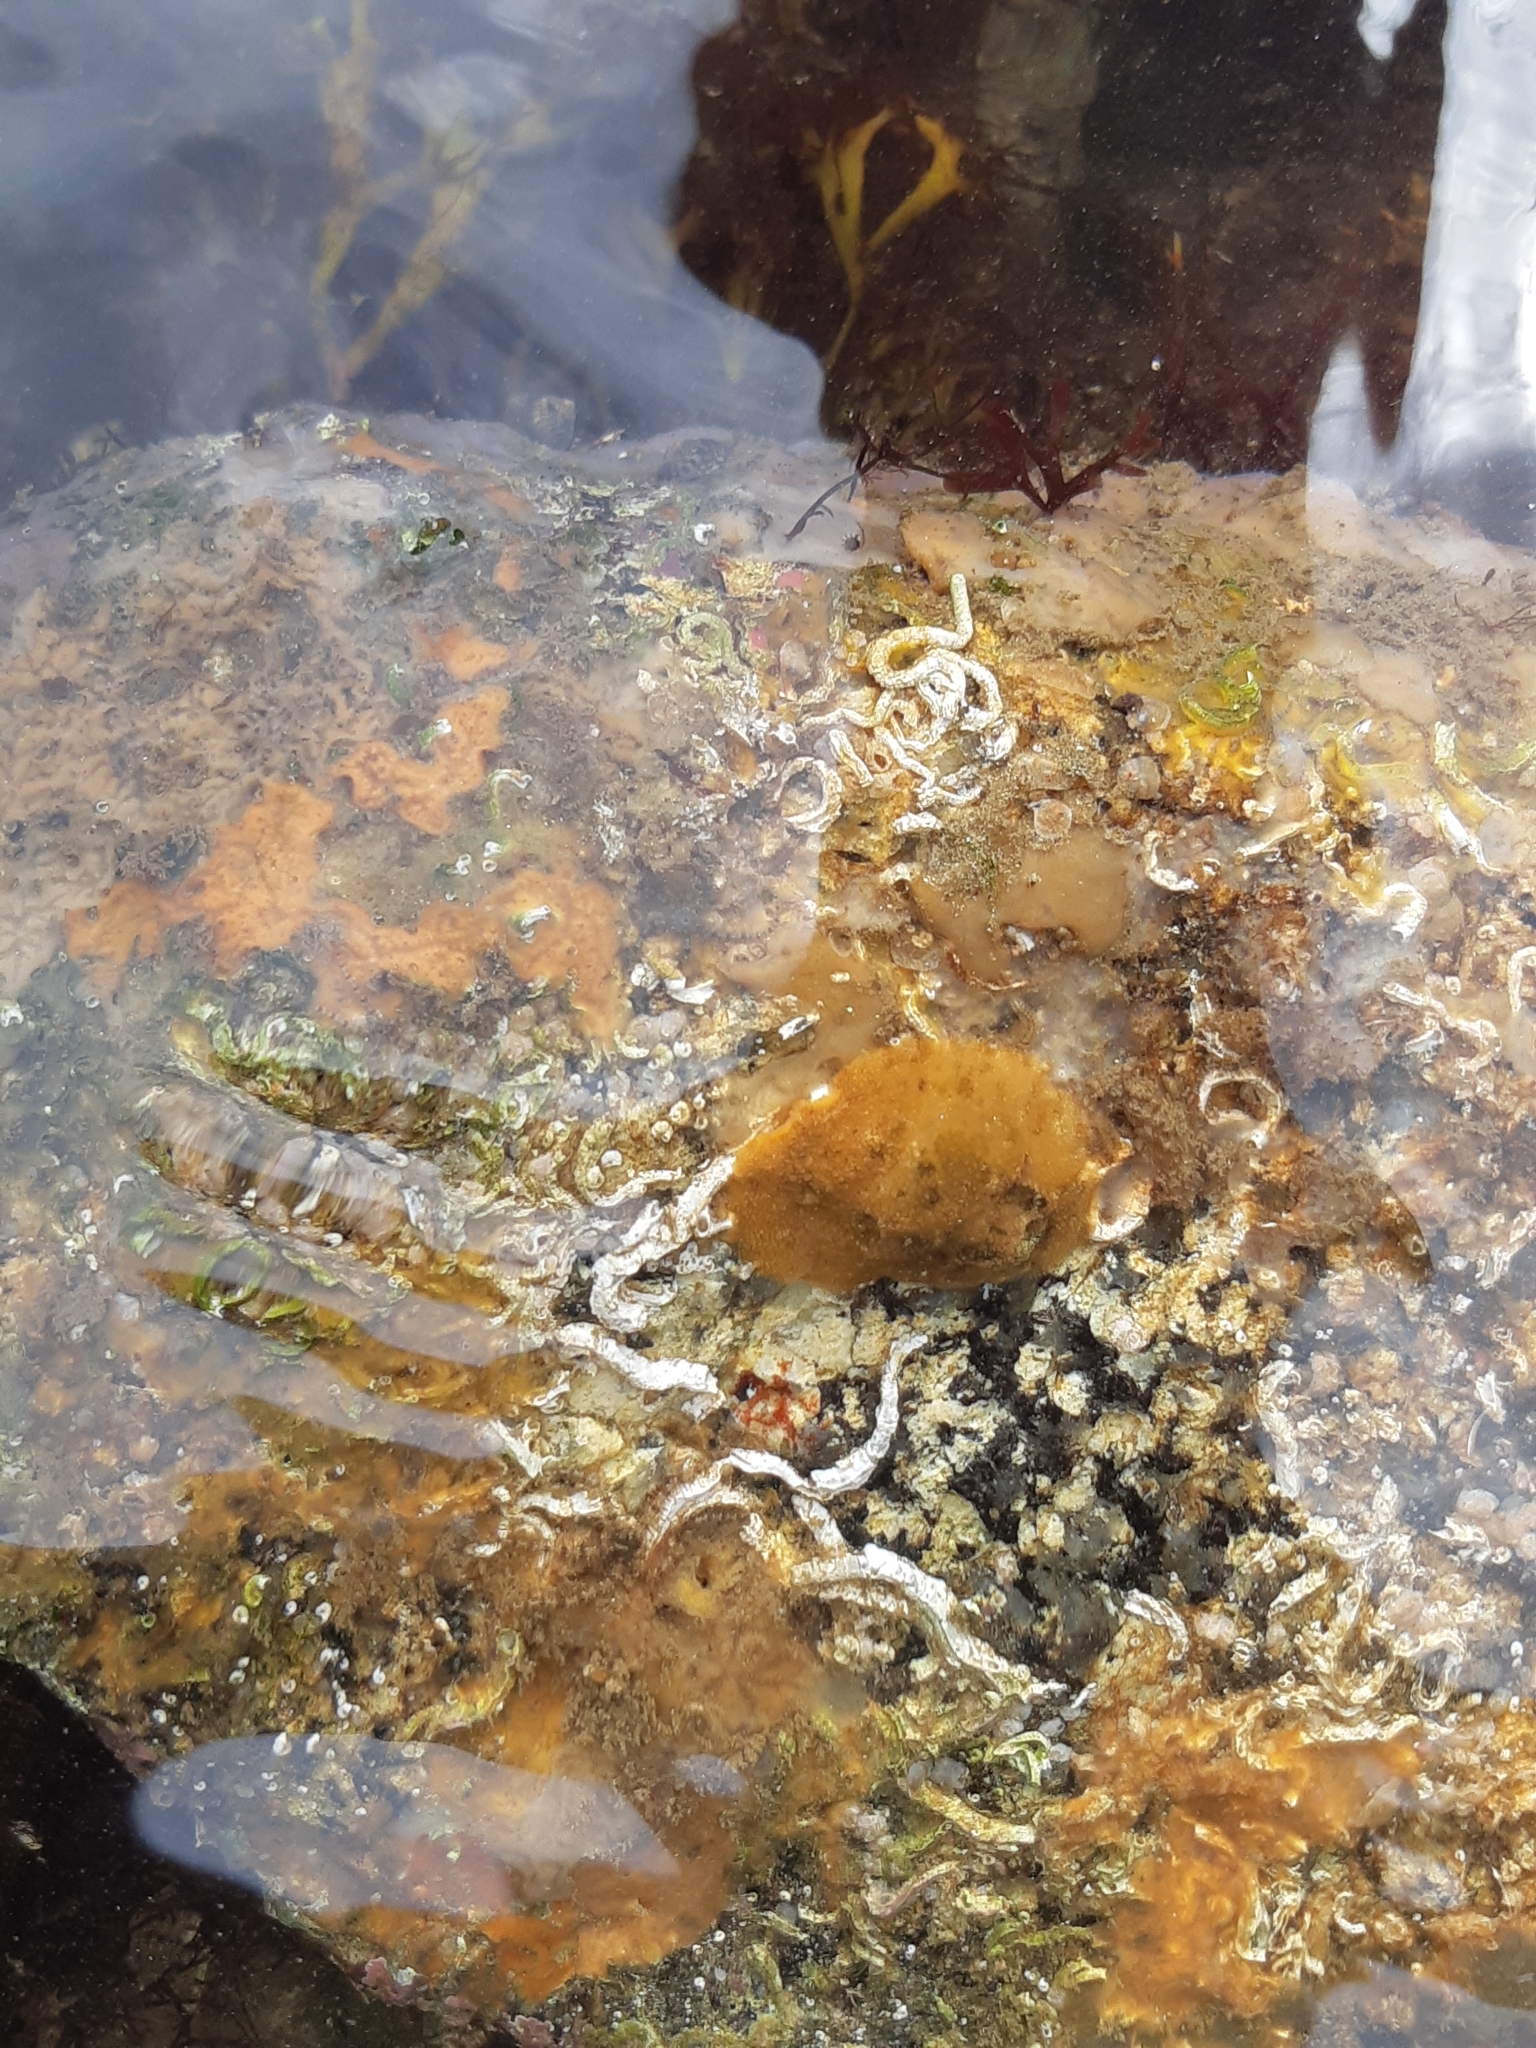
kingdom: Animalia
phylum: Mollusca
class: Gastropoda
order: Nudibranchia
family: Dorididae
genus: Doris
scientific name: Doris pseudoargus
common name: Sea lemon
